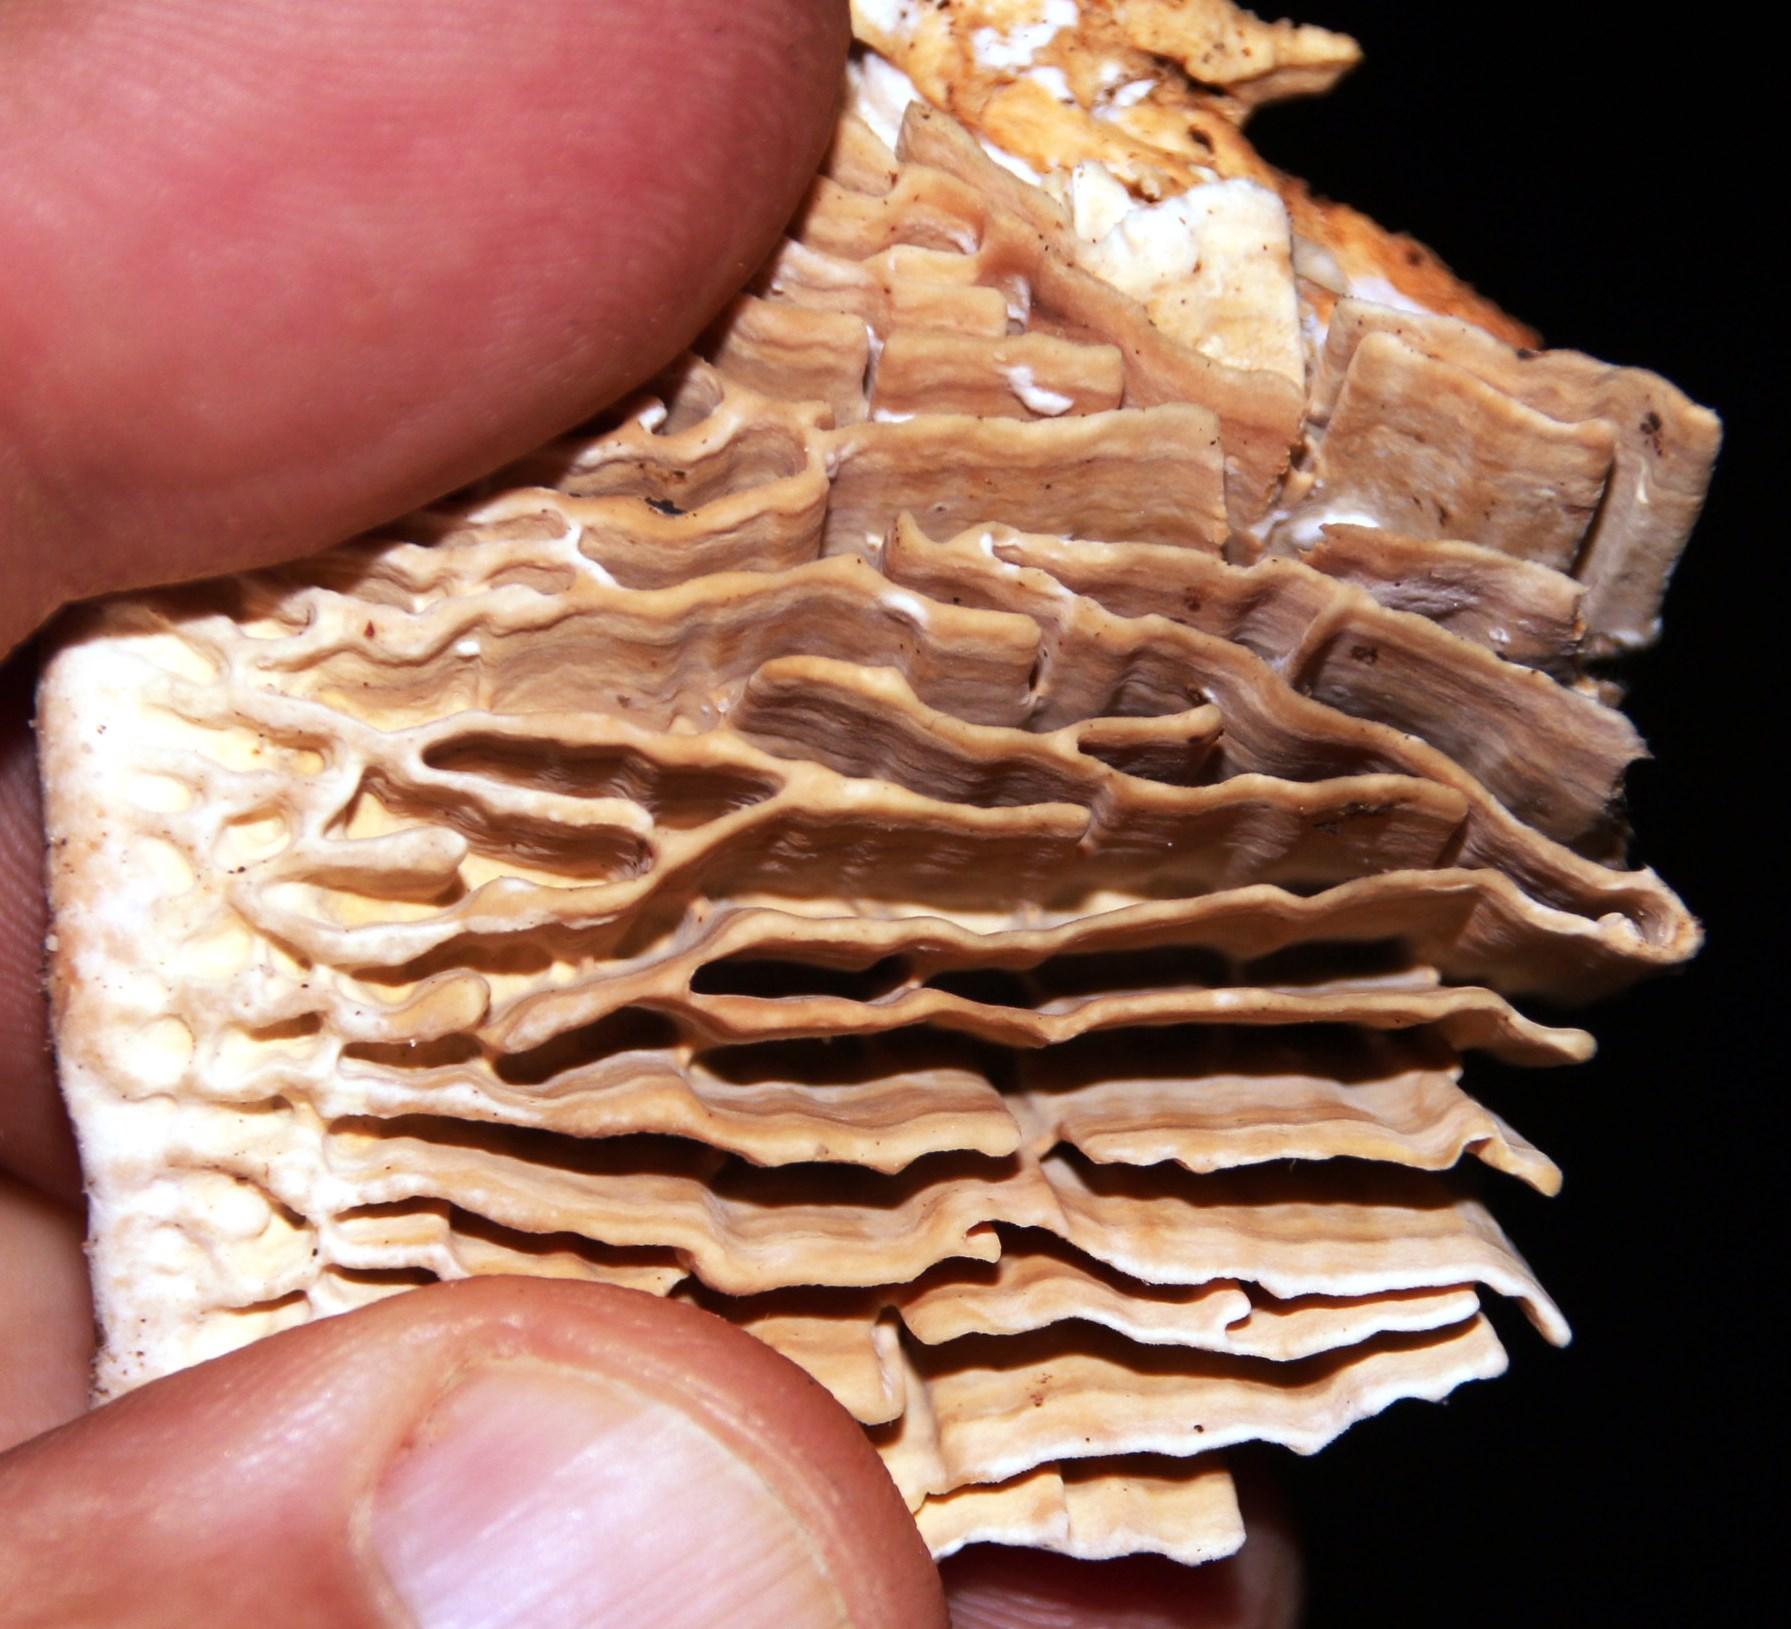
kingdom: Fungi
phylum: Basidiomycota
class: Agaricomycetes
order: Polyporales
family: Fomitopsidaceae
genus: Fomitopsis
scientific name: Fomitopsis
